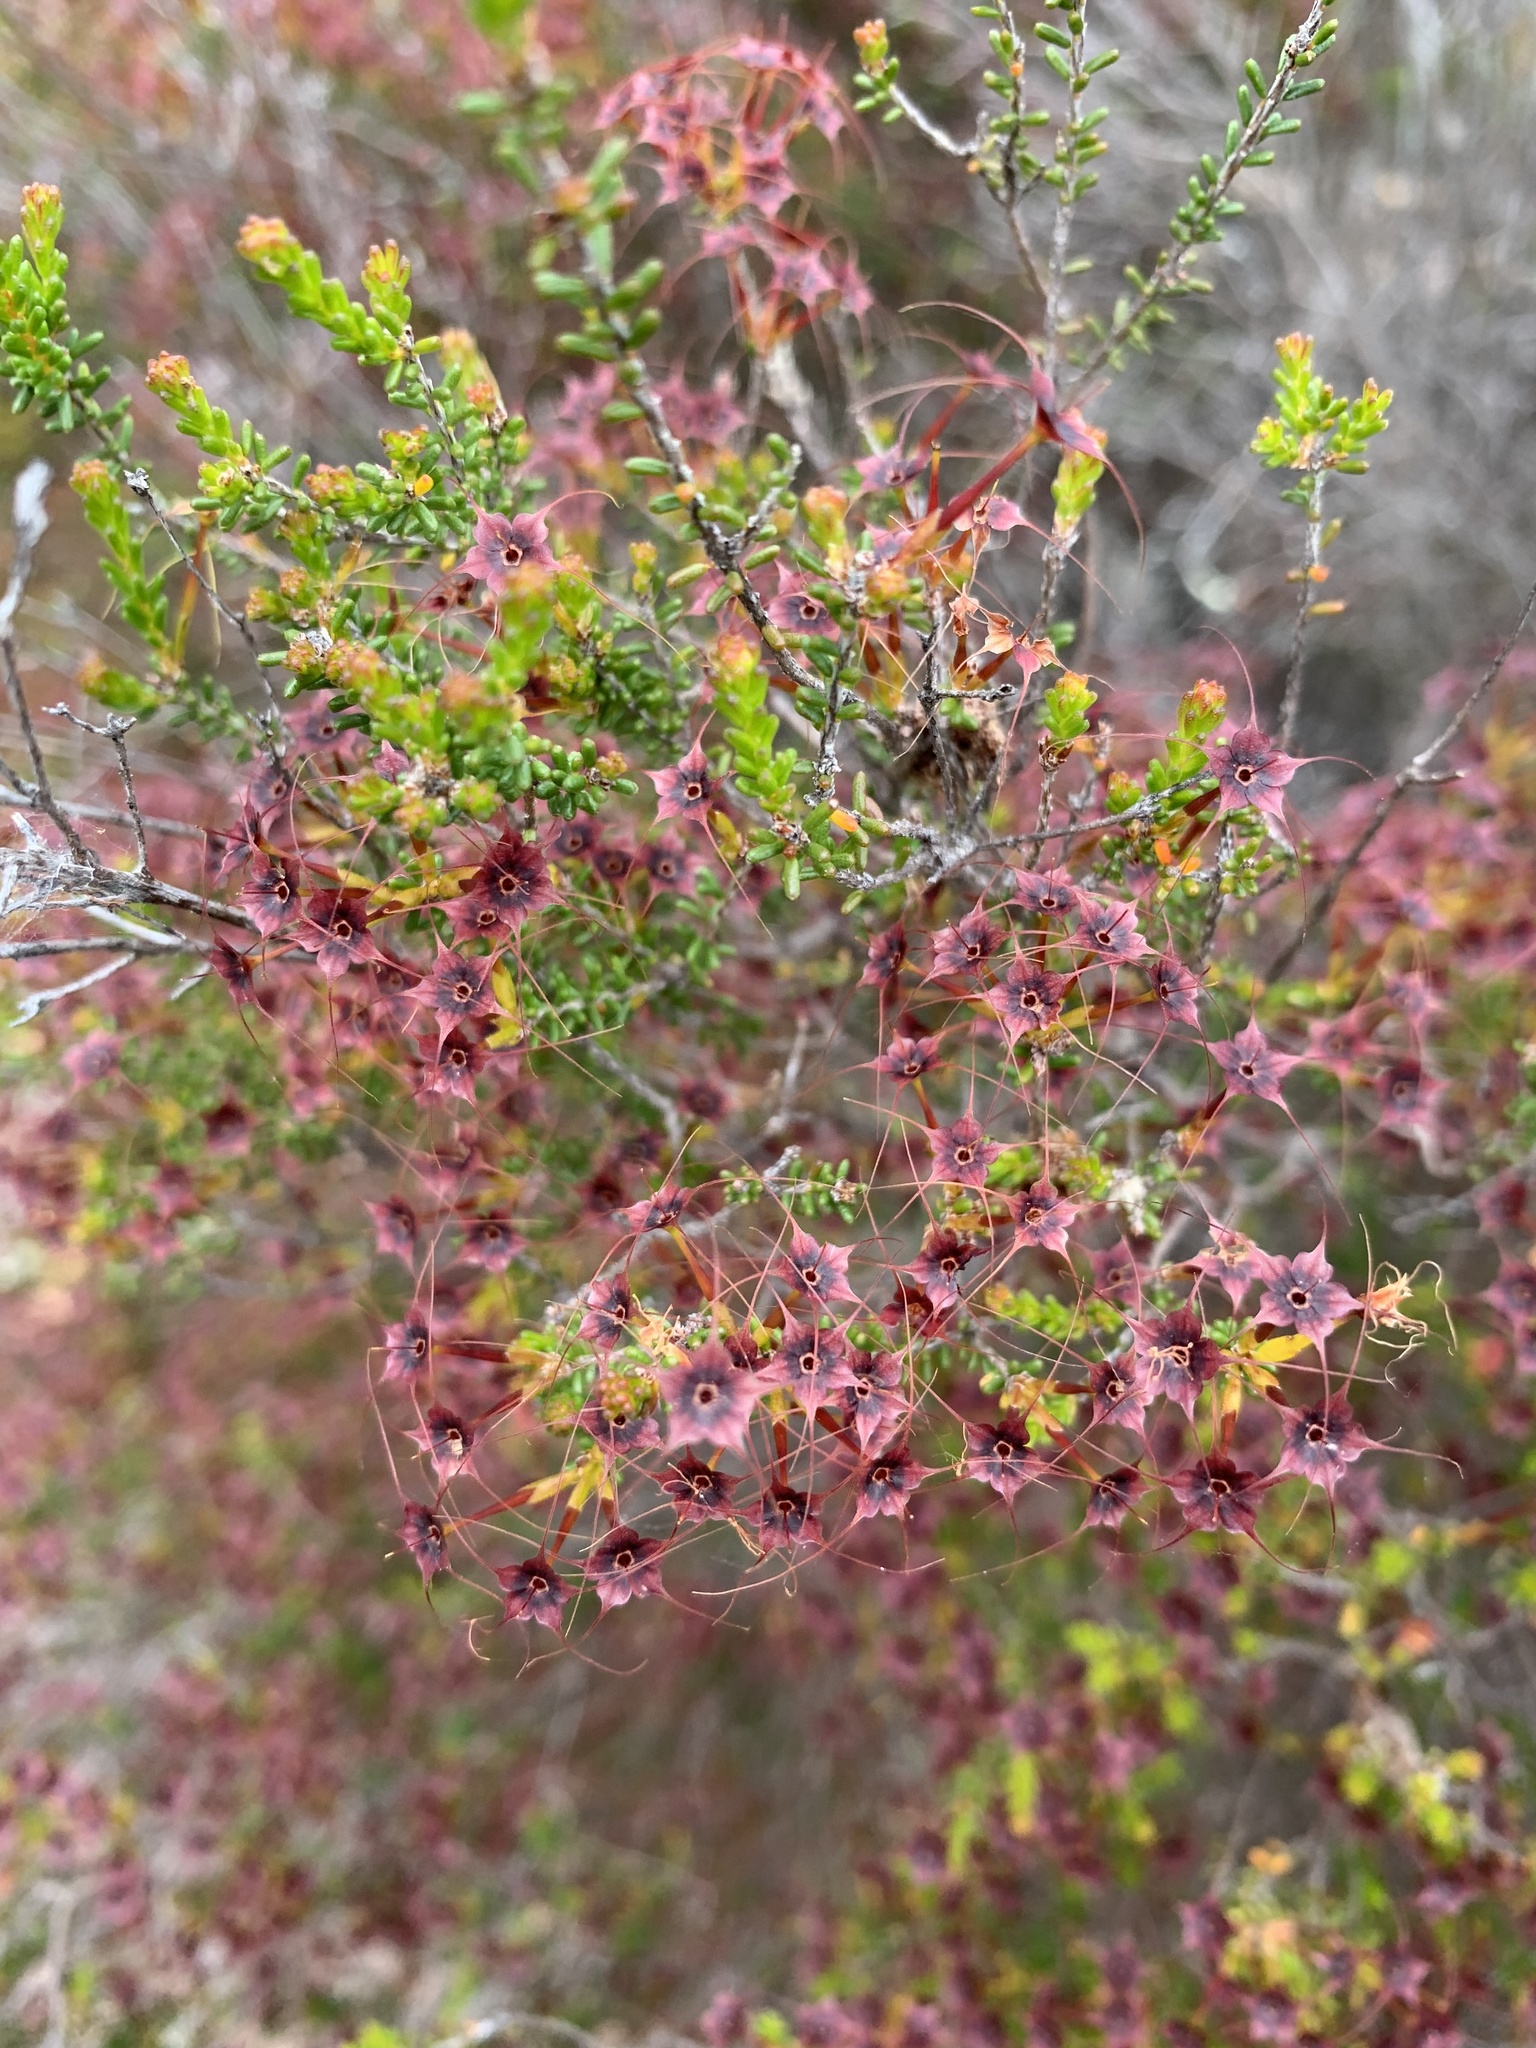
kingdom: Plantae
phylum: Tracheophyta
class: Magnoliopsida
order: Myrtales
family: Myrtaceae
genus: Calytrix
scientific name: Calytrix tetragona
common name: Common fringe myrtle
